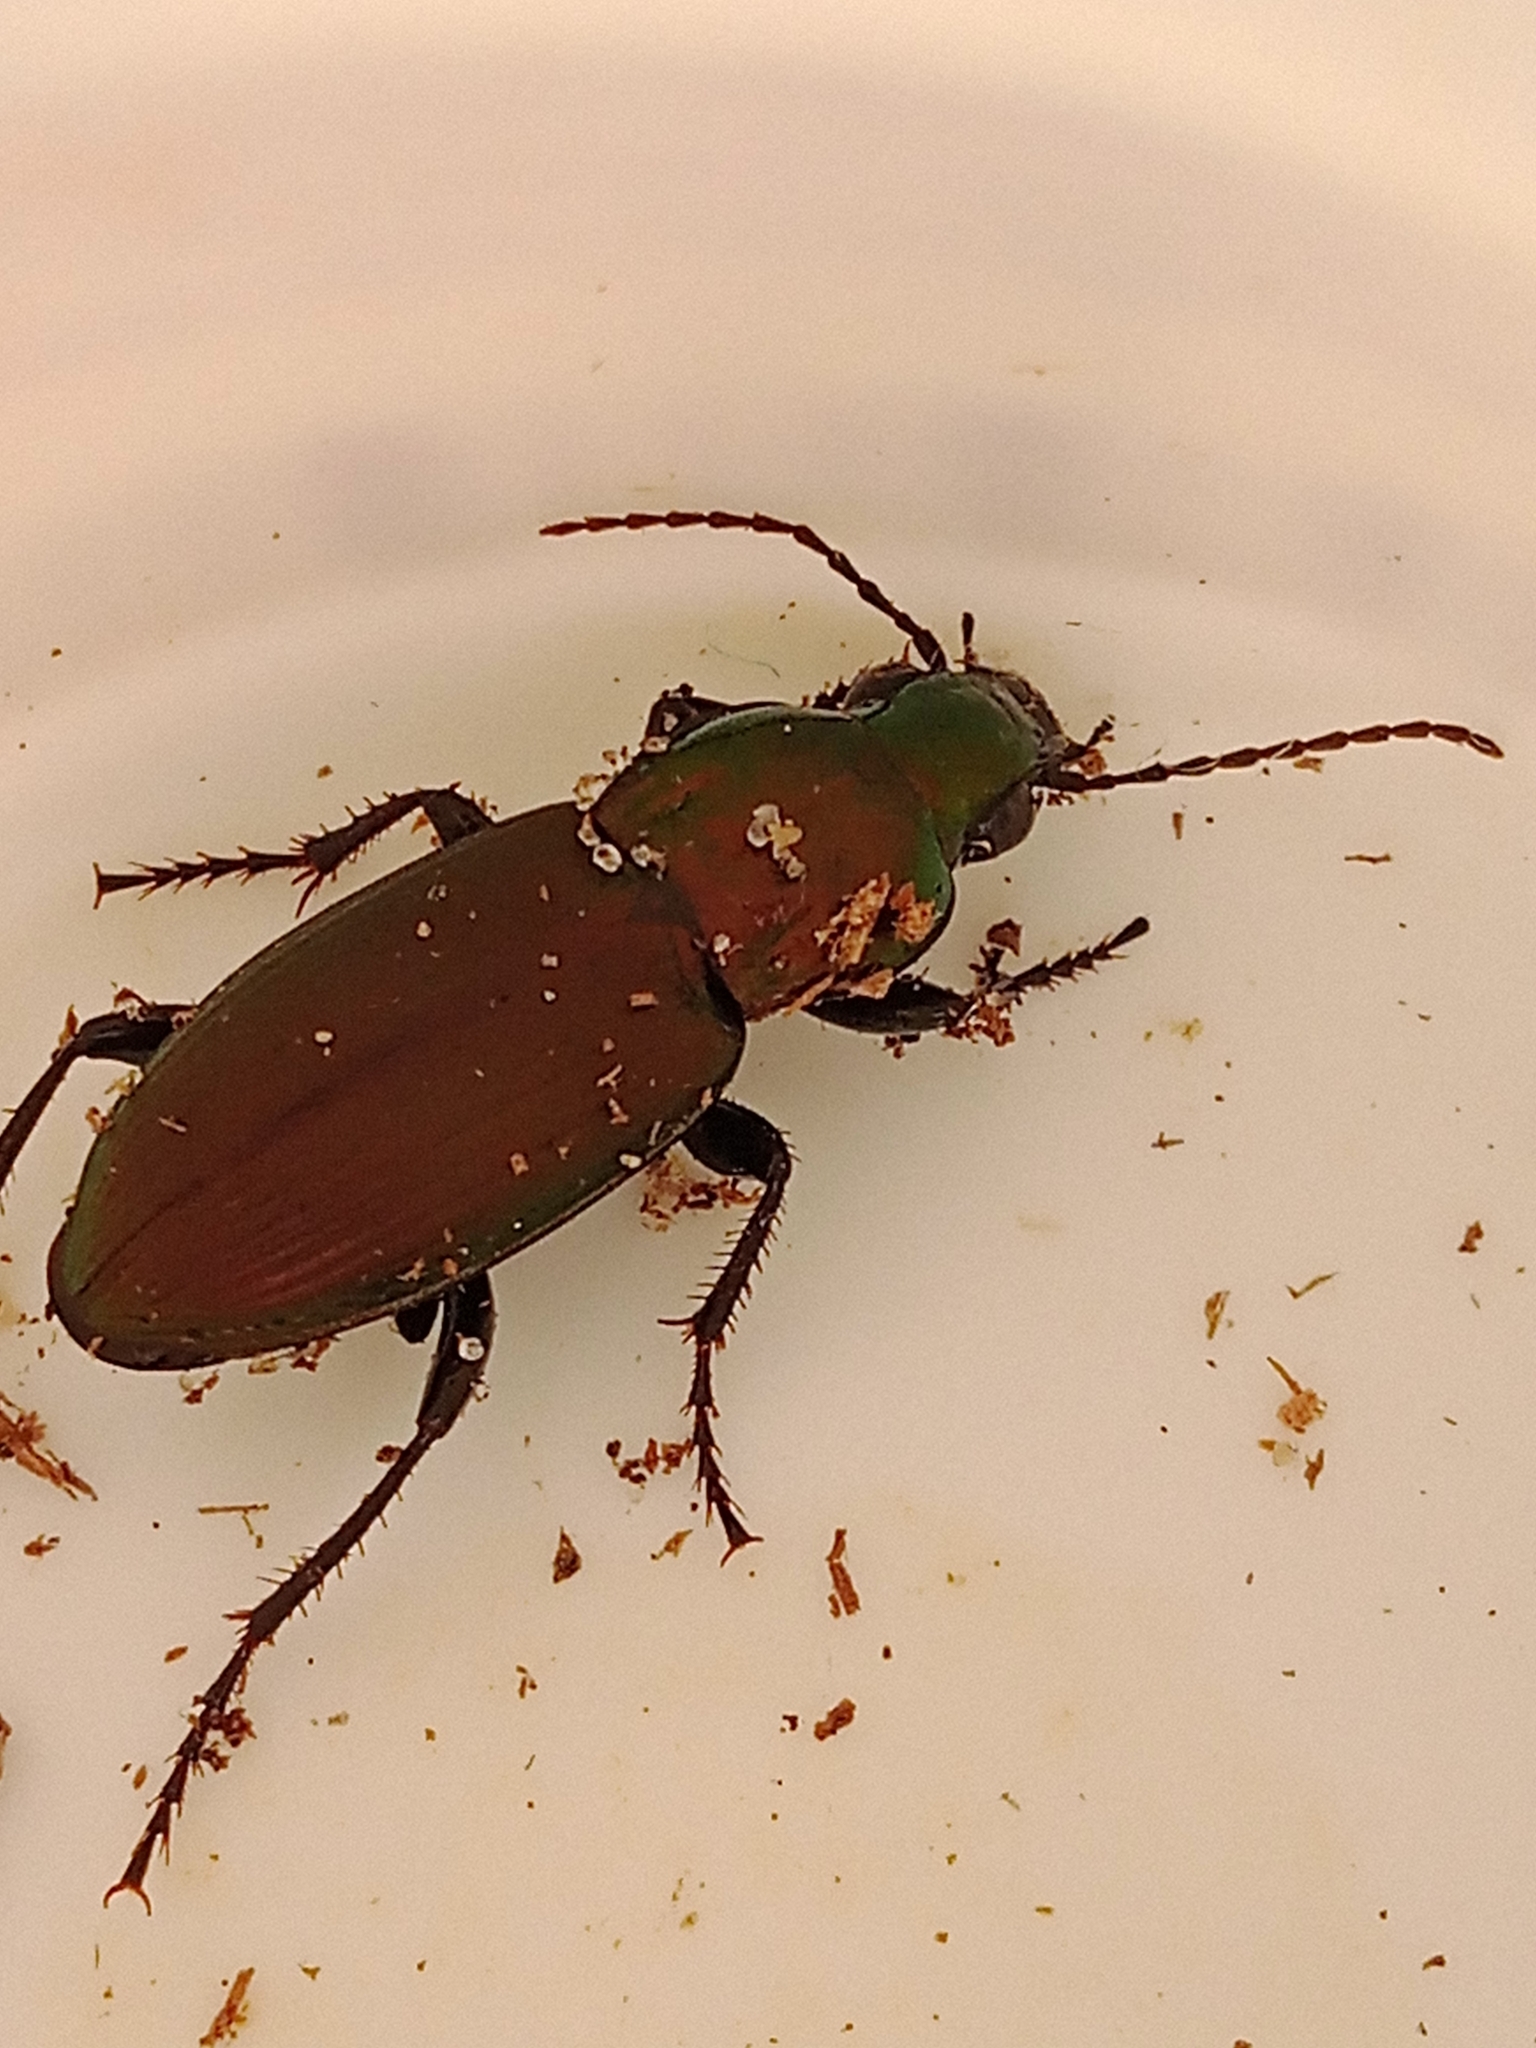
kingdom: Animalia
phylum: Arthropoda
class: Insecta
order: Coleoptera
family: Carabidae
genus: Poecilus
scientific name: Poecilus lepidus
